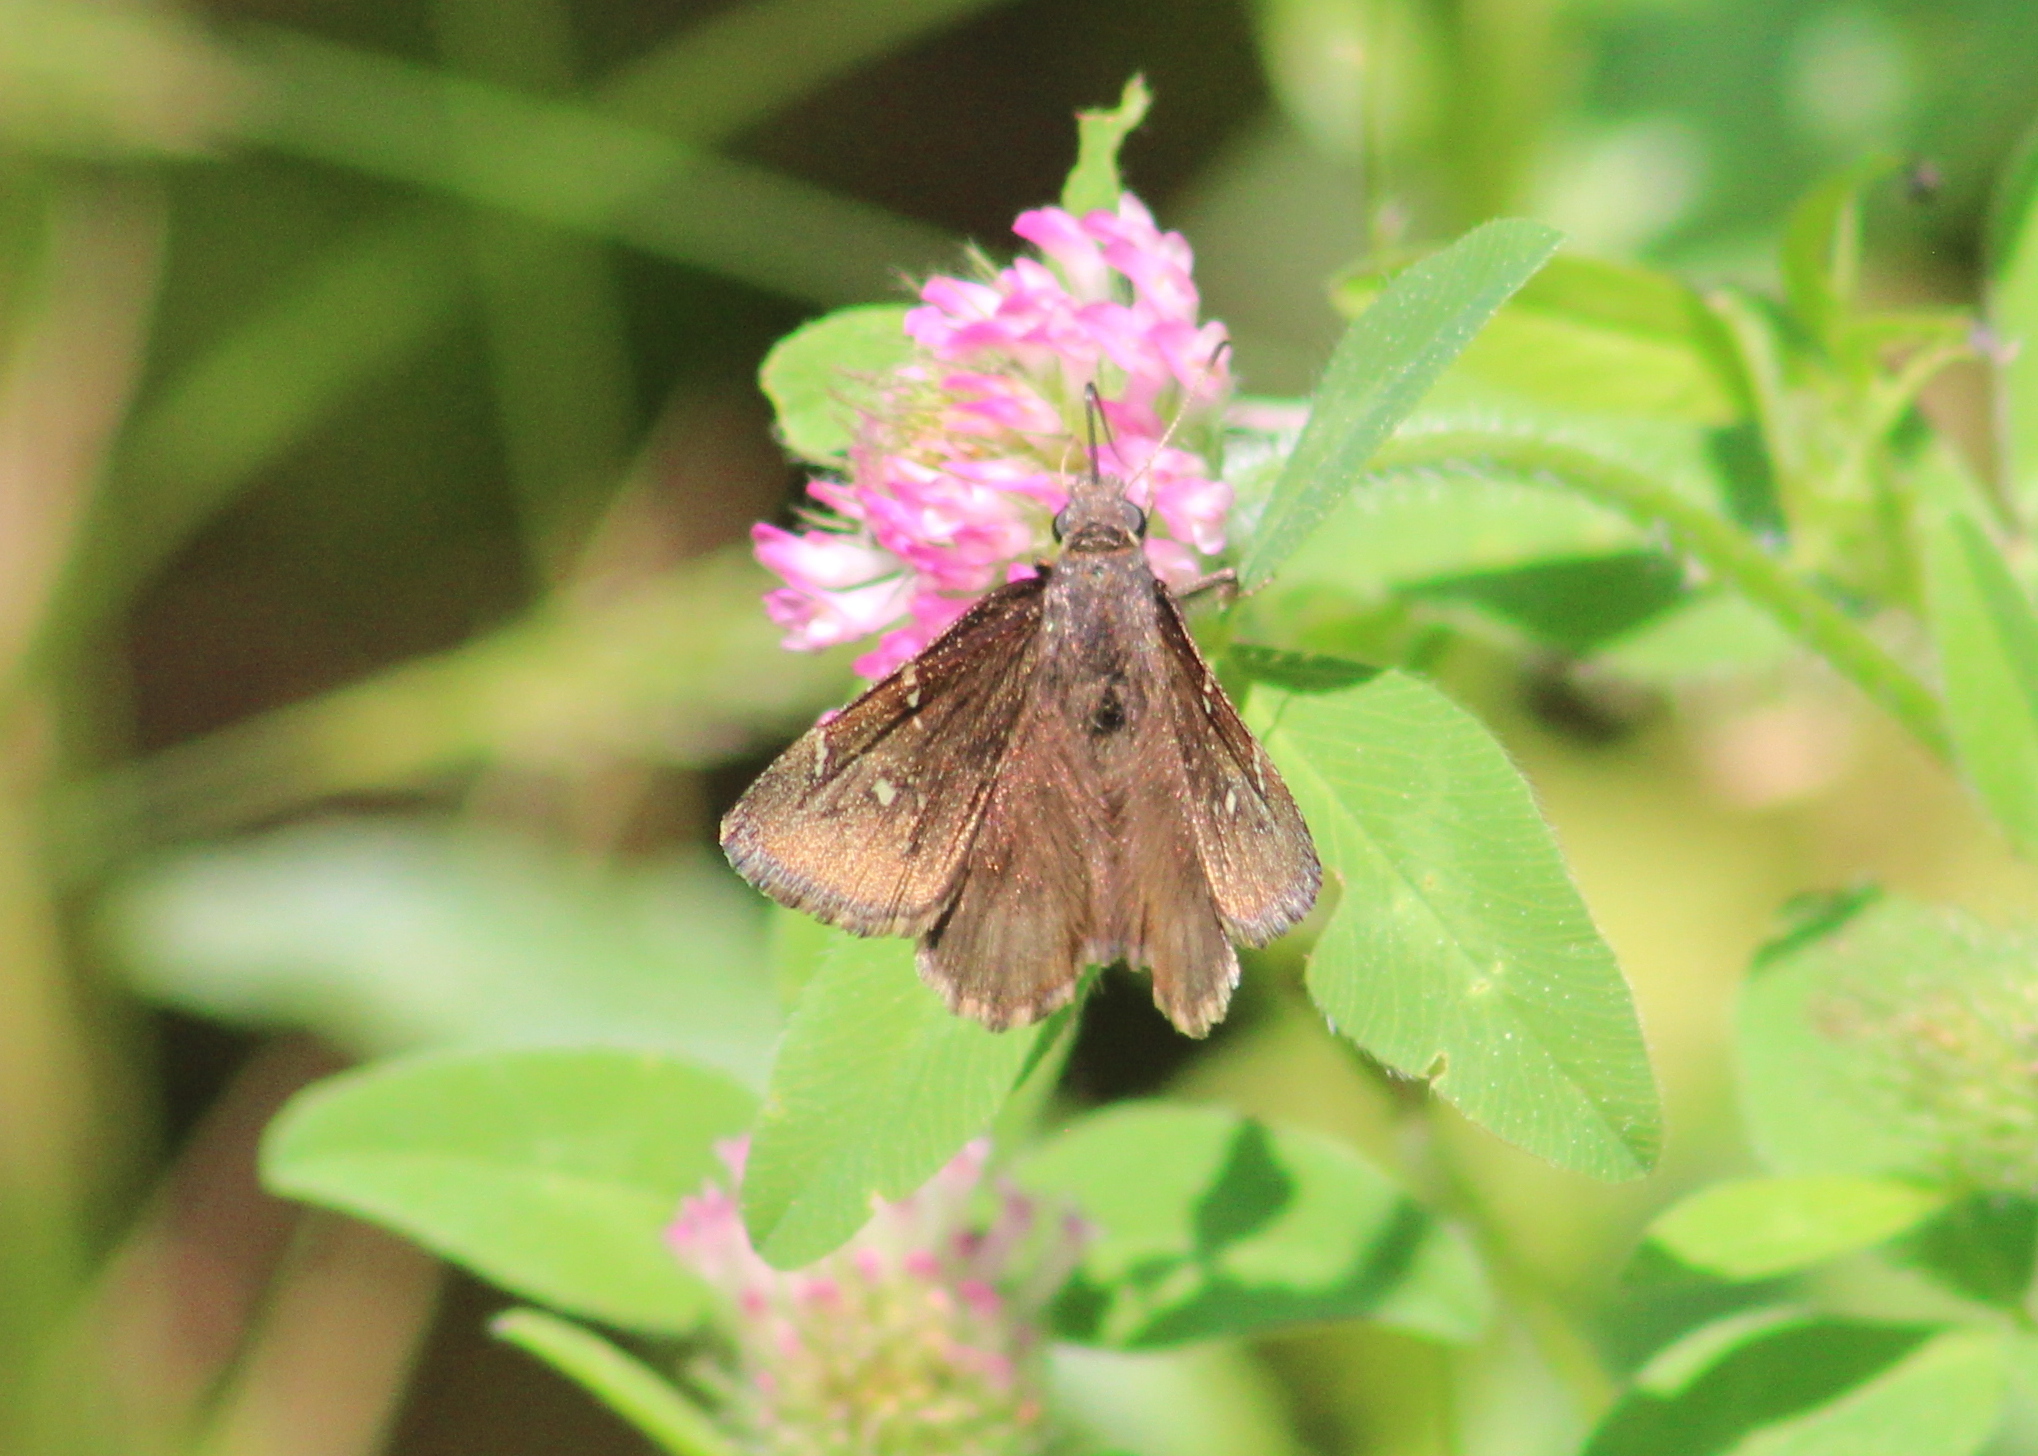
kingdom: Animalia
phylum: Arthropoda
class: Insecta
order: Lepidoptera
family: Hesperiidae
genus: Thorybes
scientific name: Thorybes pylades
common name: Northern cloudywing
